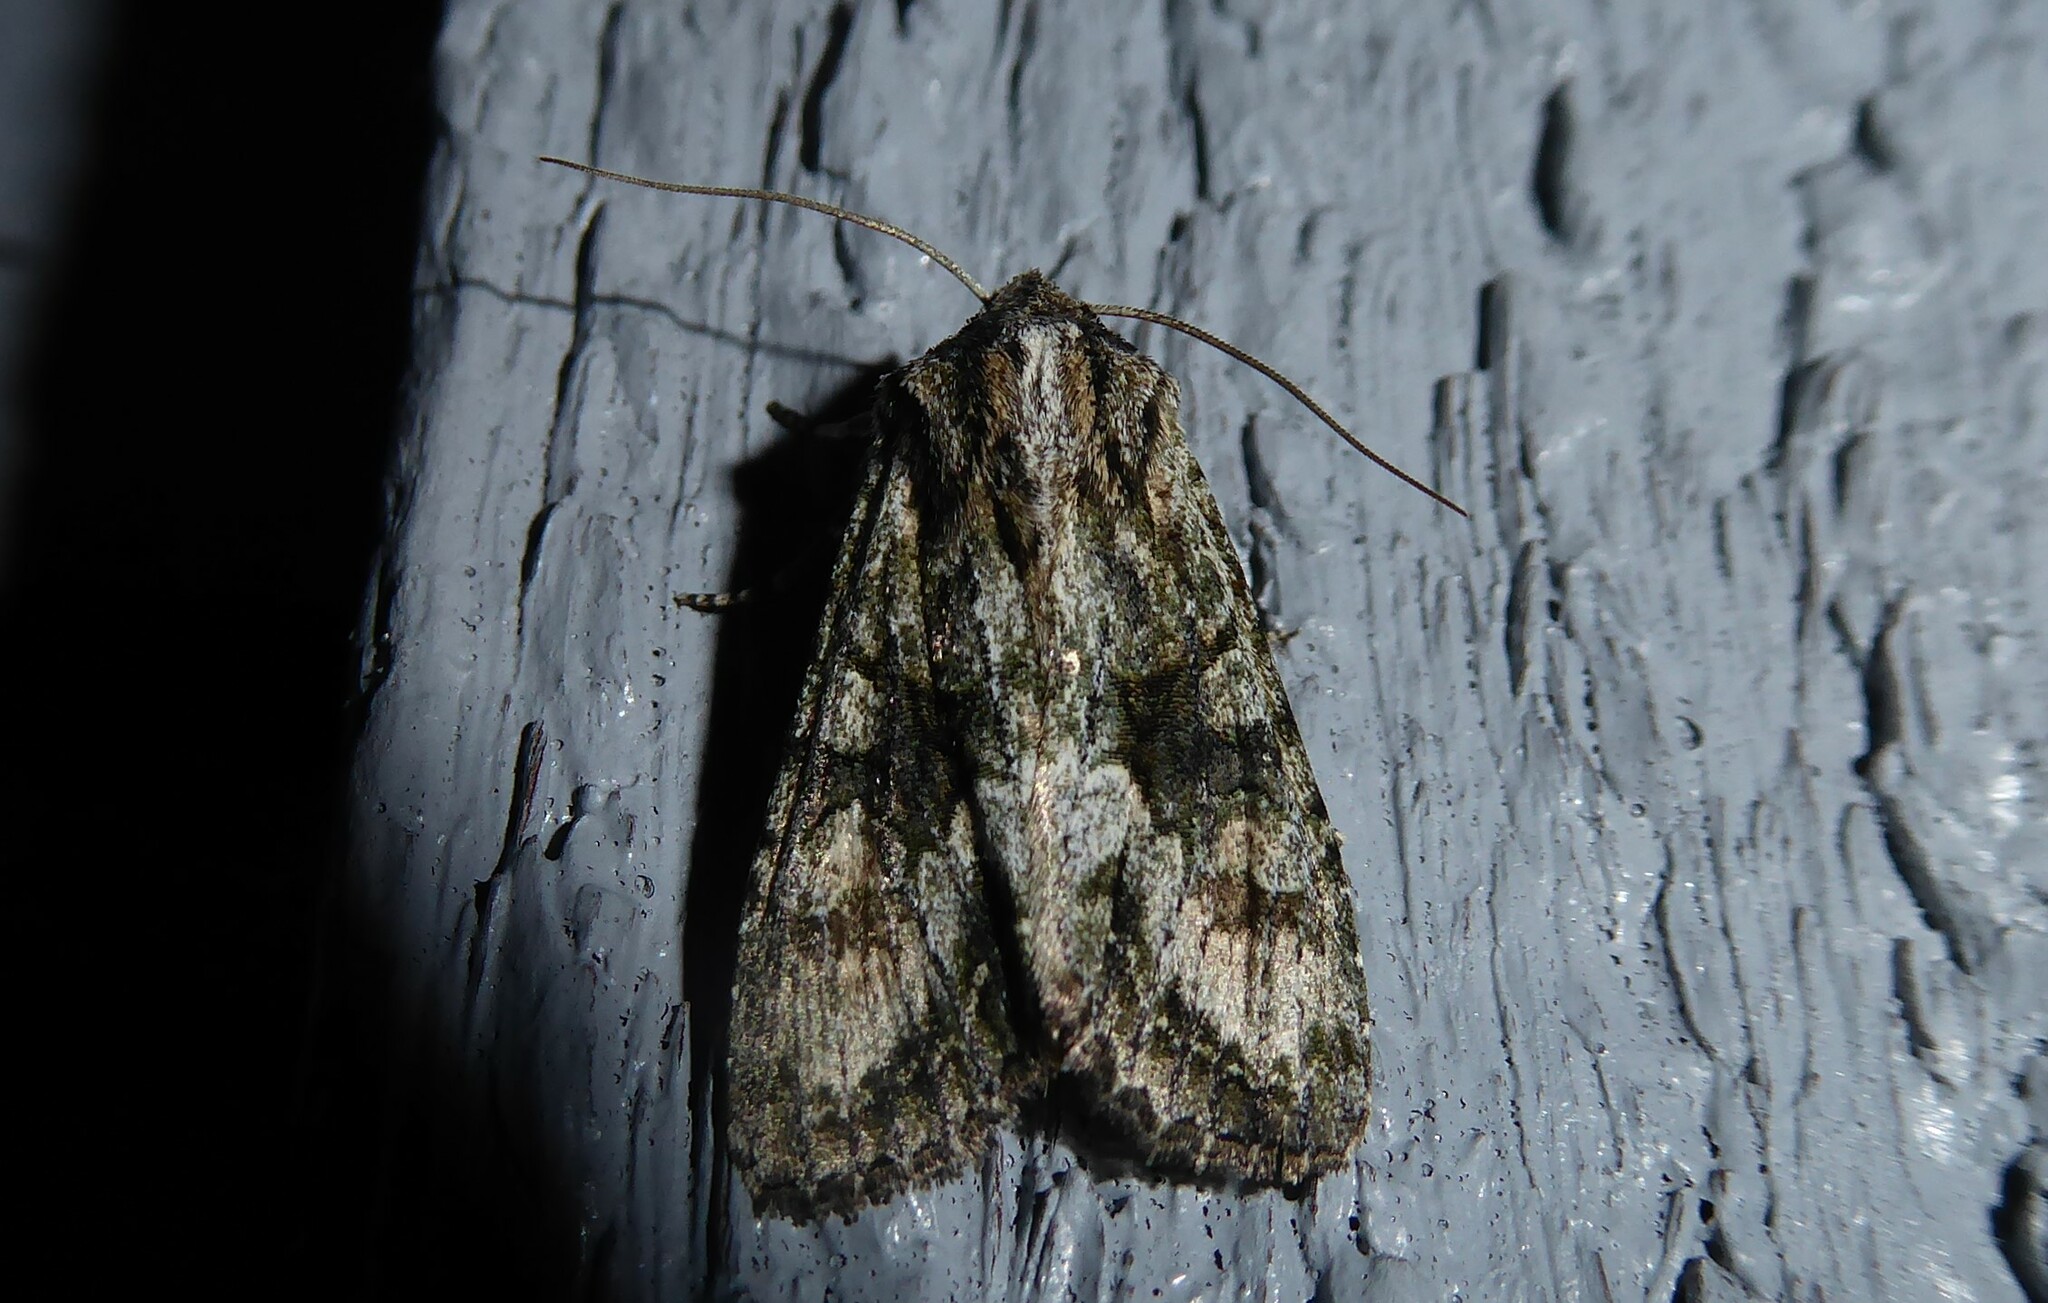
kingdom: Animalia
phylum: Arthropoda
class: Insecta
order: Lepidoptera
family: Noctuidae
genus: Ichneutica
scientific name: Ichneutica mutans
